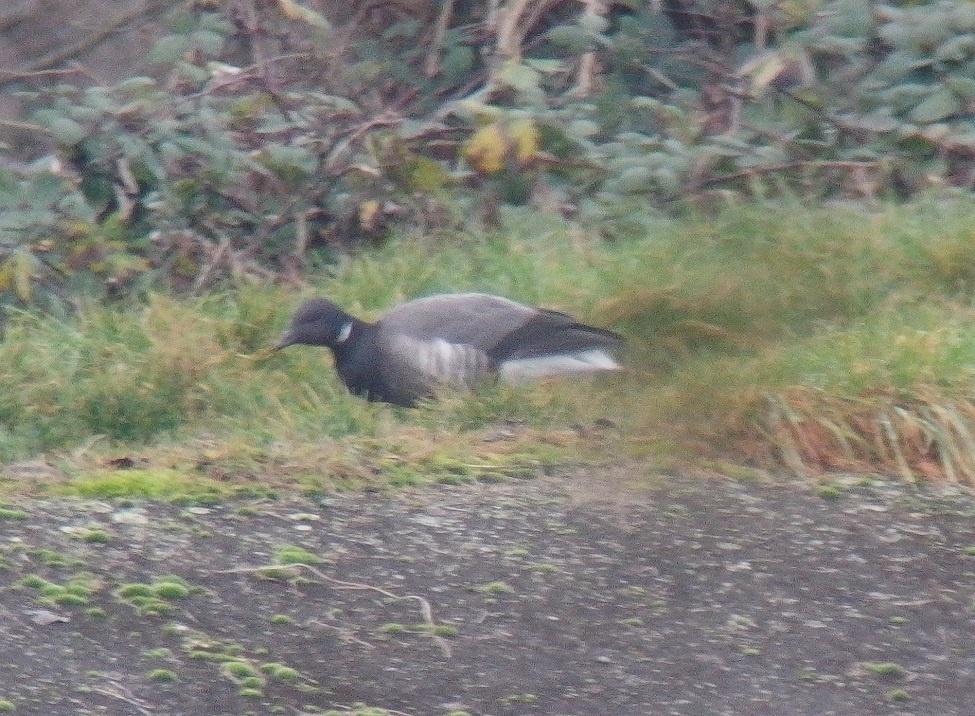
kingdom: Animalia
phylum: Chordata
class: Aves
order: Anseriformes
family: Anatidae
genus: Branta
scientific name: Branta bernicla
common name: Brant goose
